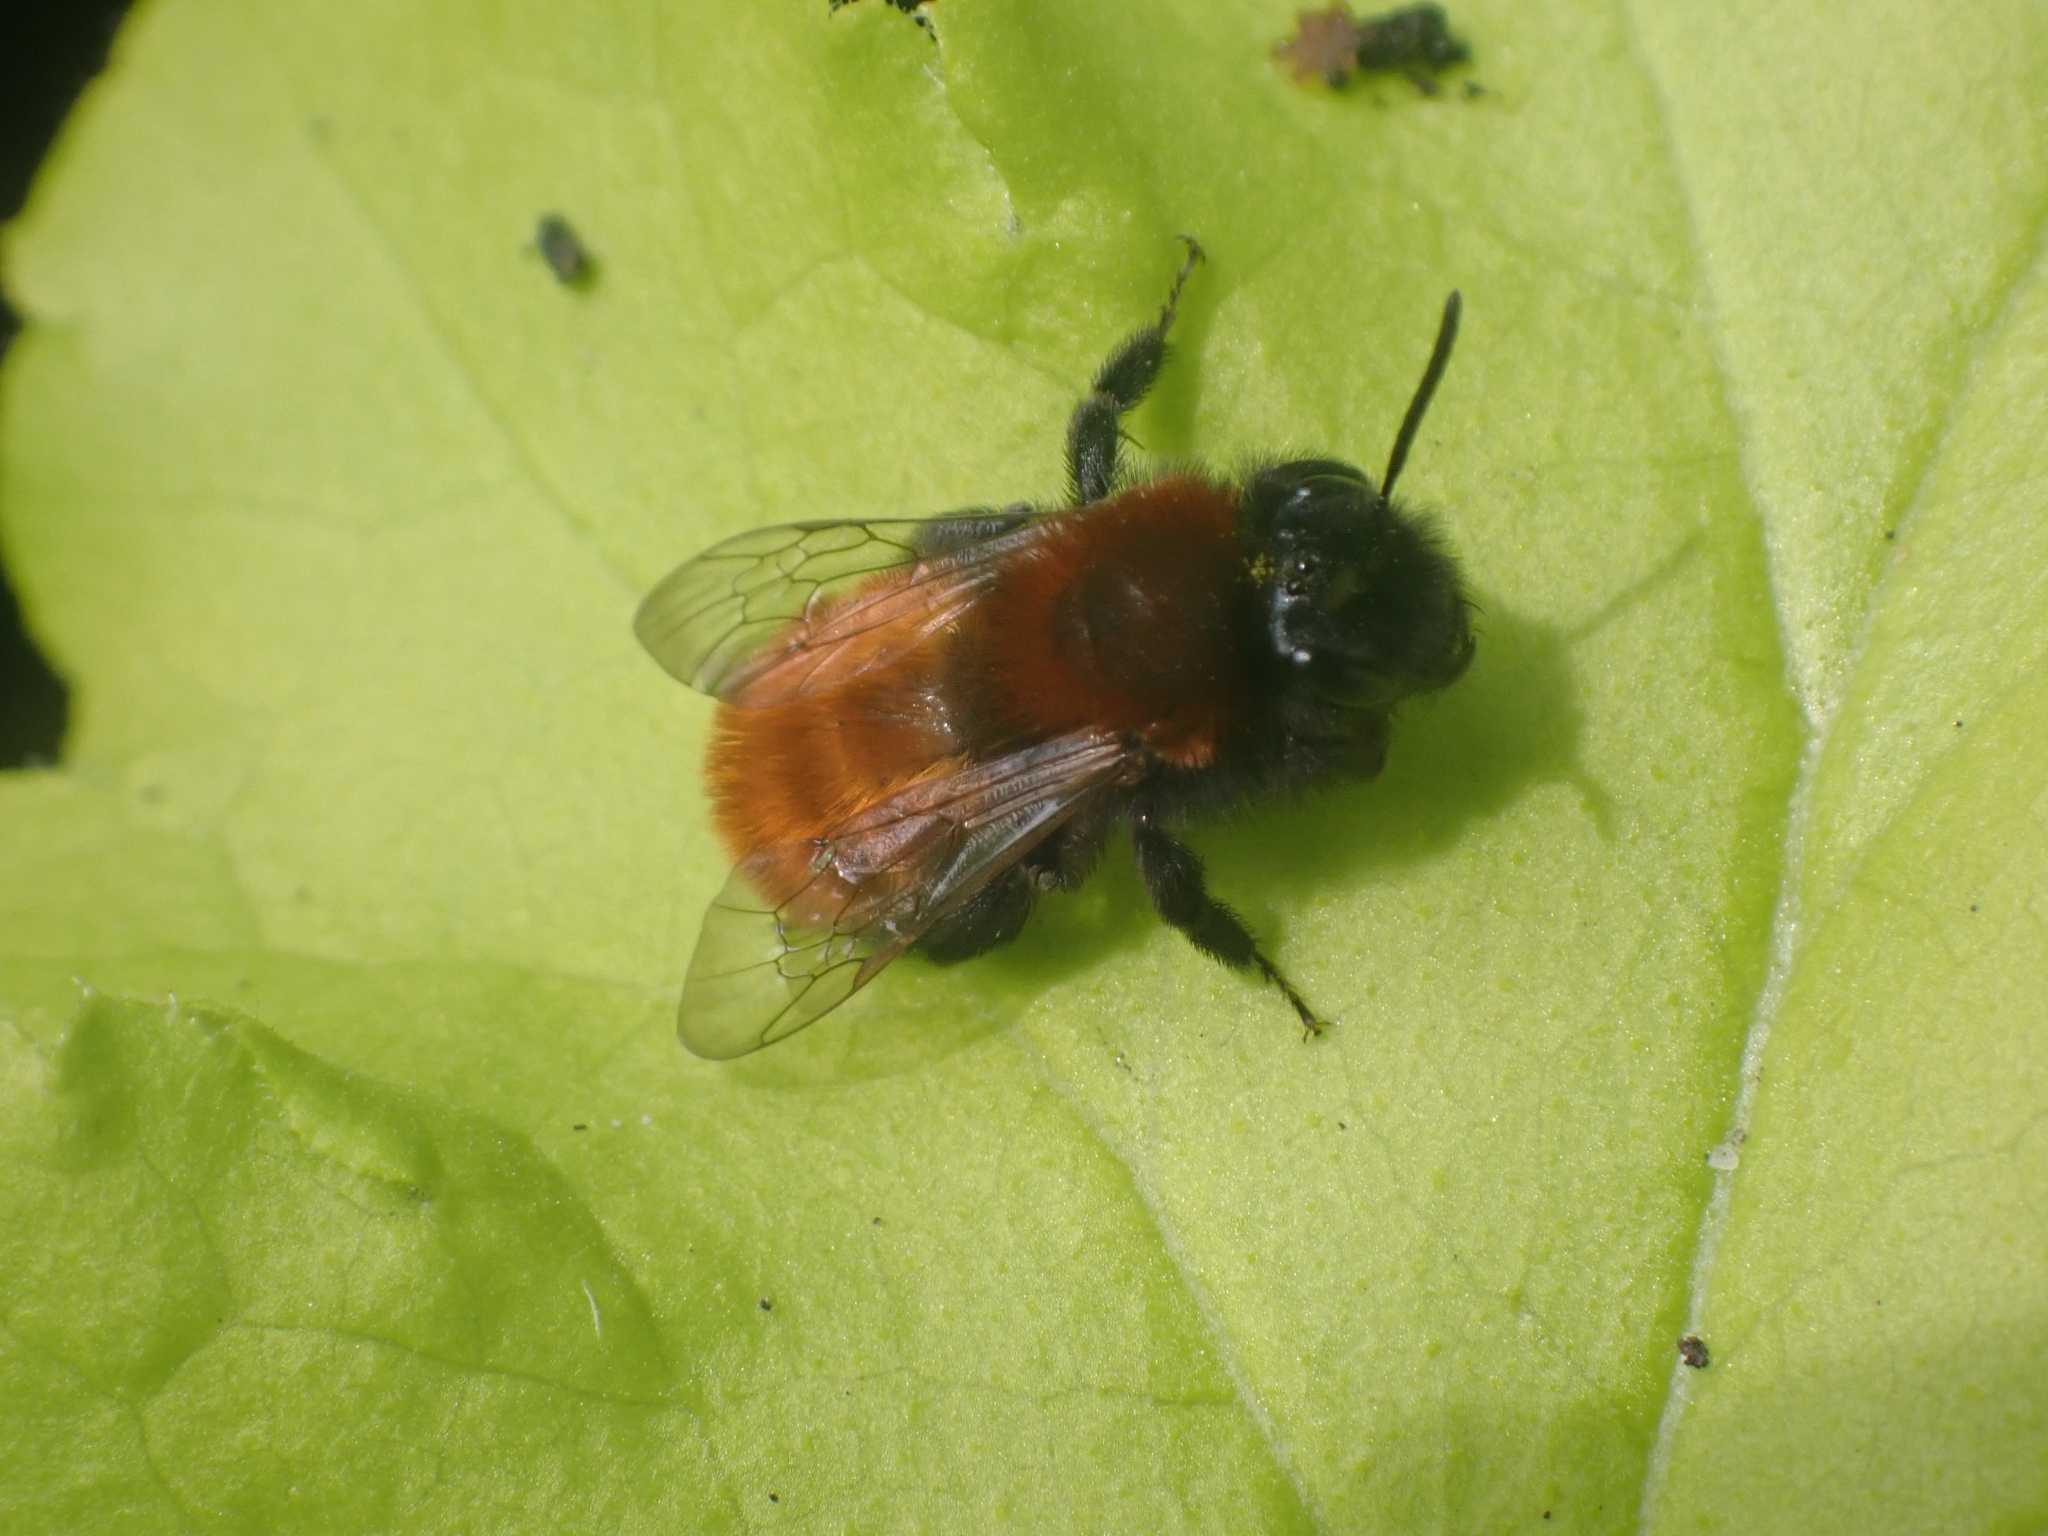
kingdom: Animalia
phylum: Arthropoda
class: Insecta
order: Hymenoptera
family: Andrenidae
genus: Andrena
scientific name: Andrena fulva
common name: Tawny mining bee
